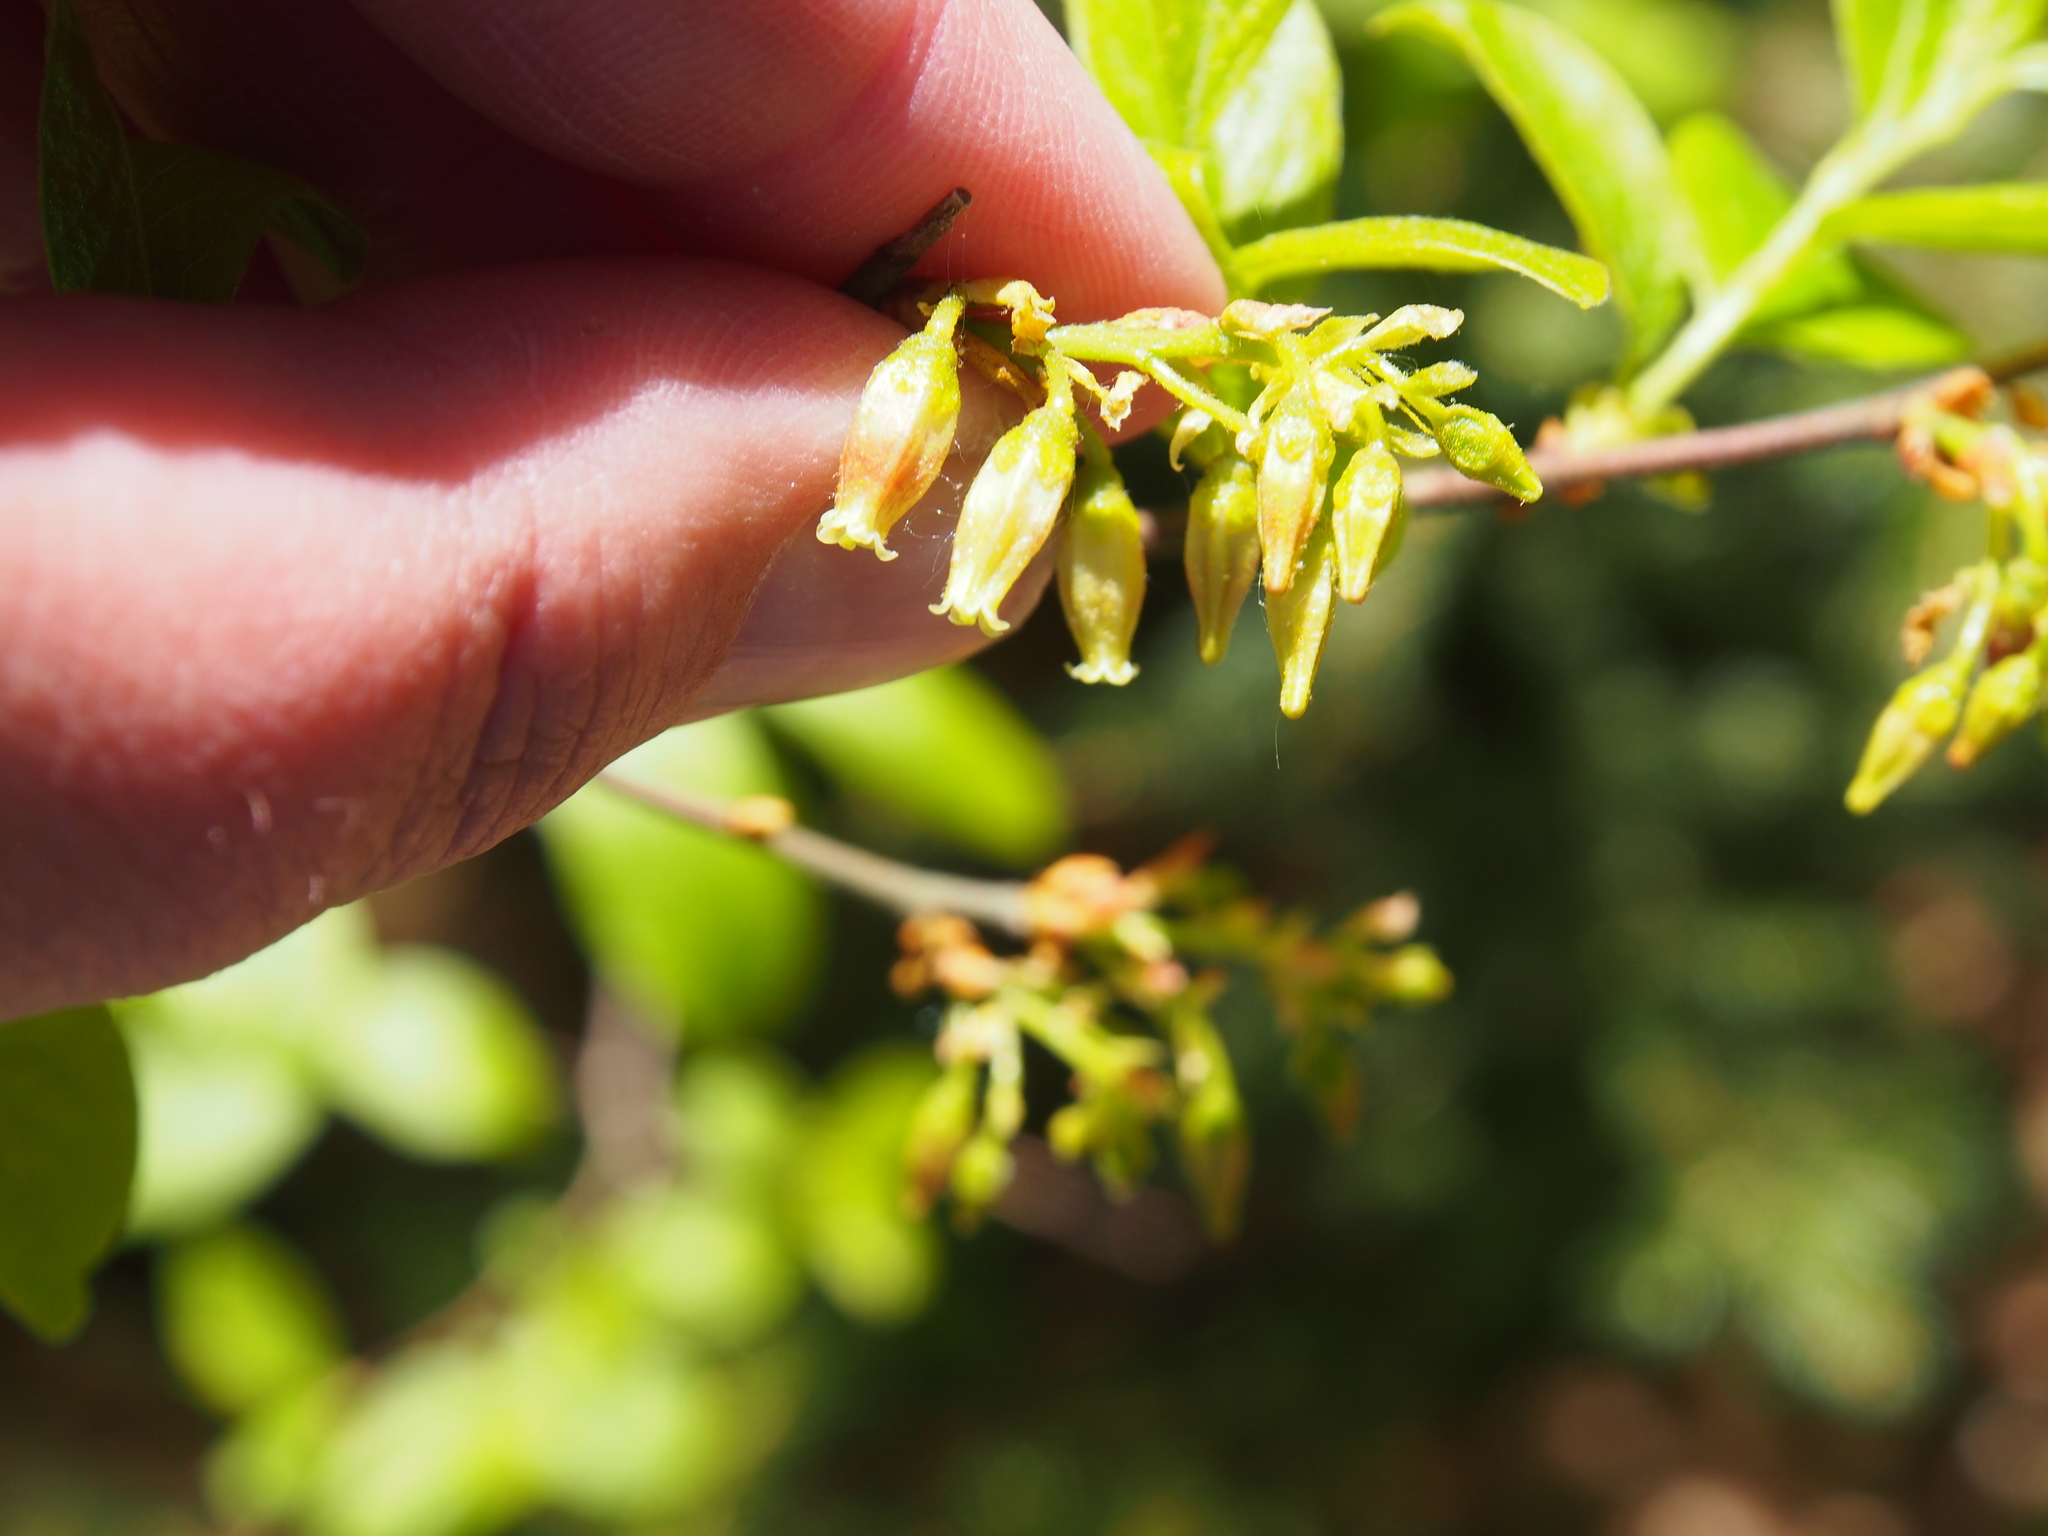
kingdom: Plantae
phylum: Tracheophyta
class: Magnoliopsida
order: Ericales
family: Ericaceae
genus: Gaylussacia
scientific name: Gaylussacia baccata
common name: Black huckleberry
